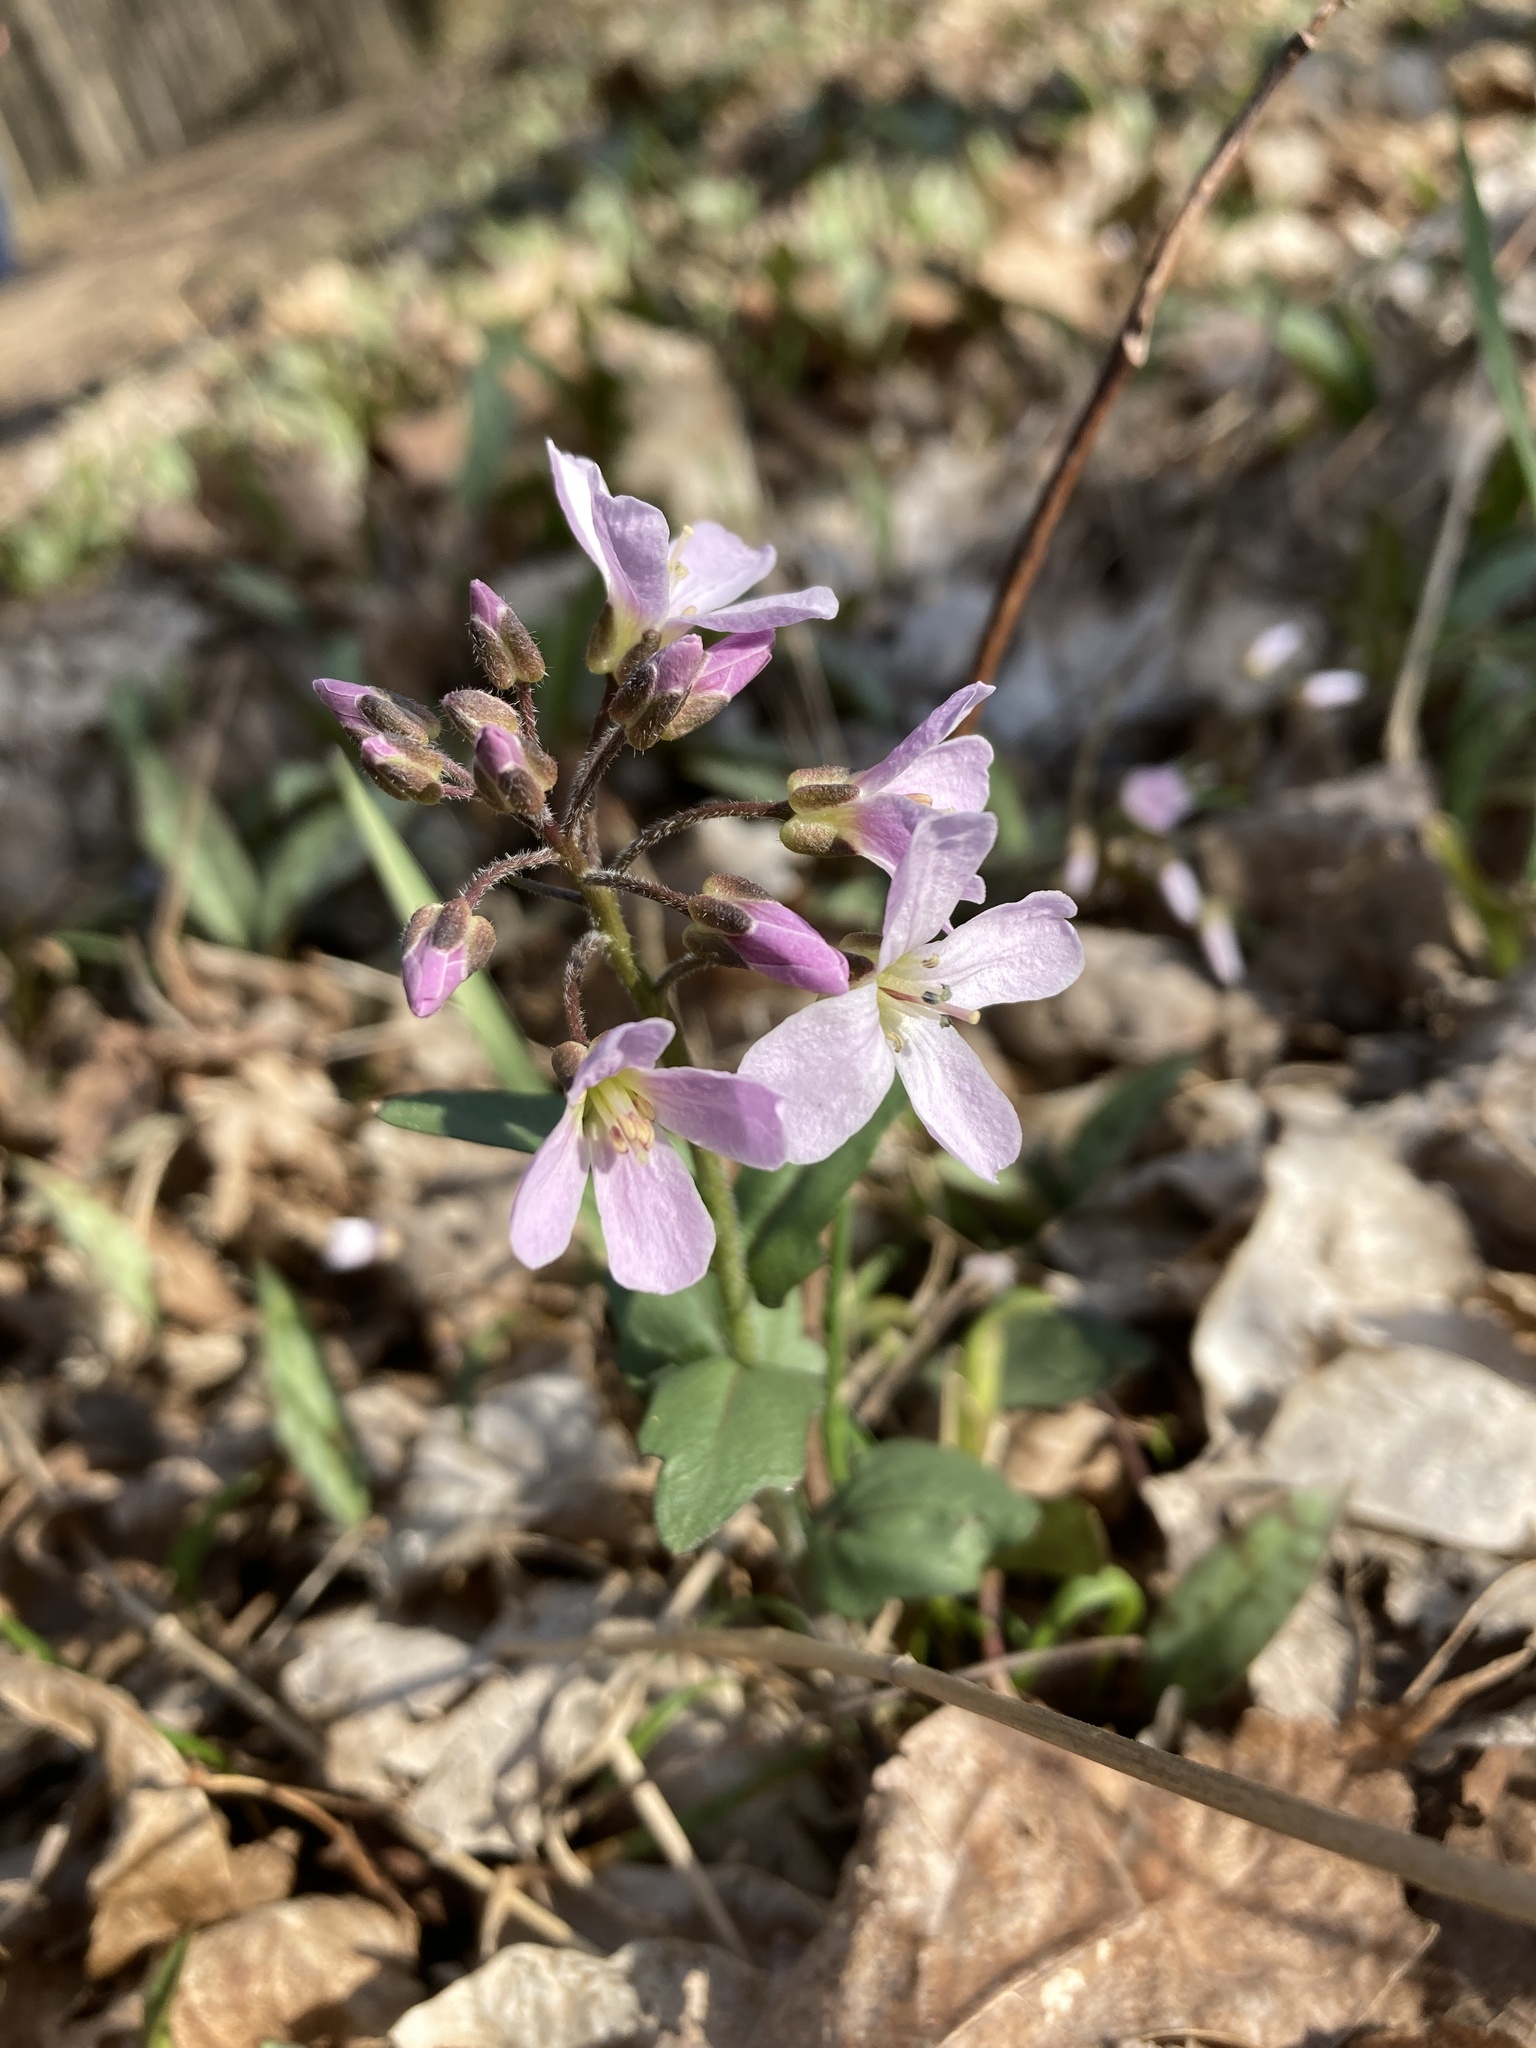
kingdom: Plantae
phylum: Tracheophyta
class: Magnoliopsida
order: Brassicales
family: Brassicaceae
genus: Cardamine
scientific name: Cardamine douglassii
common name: Purple cress
